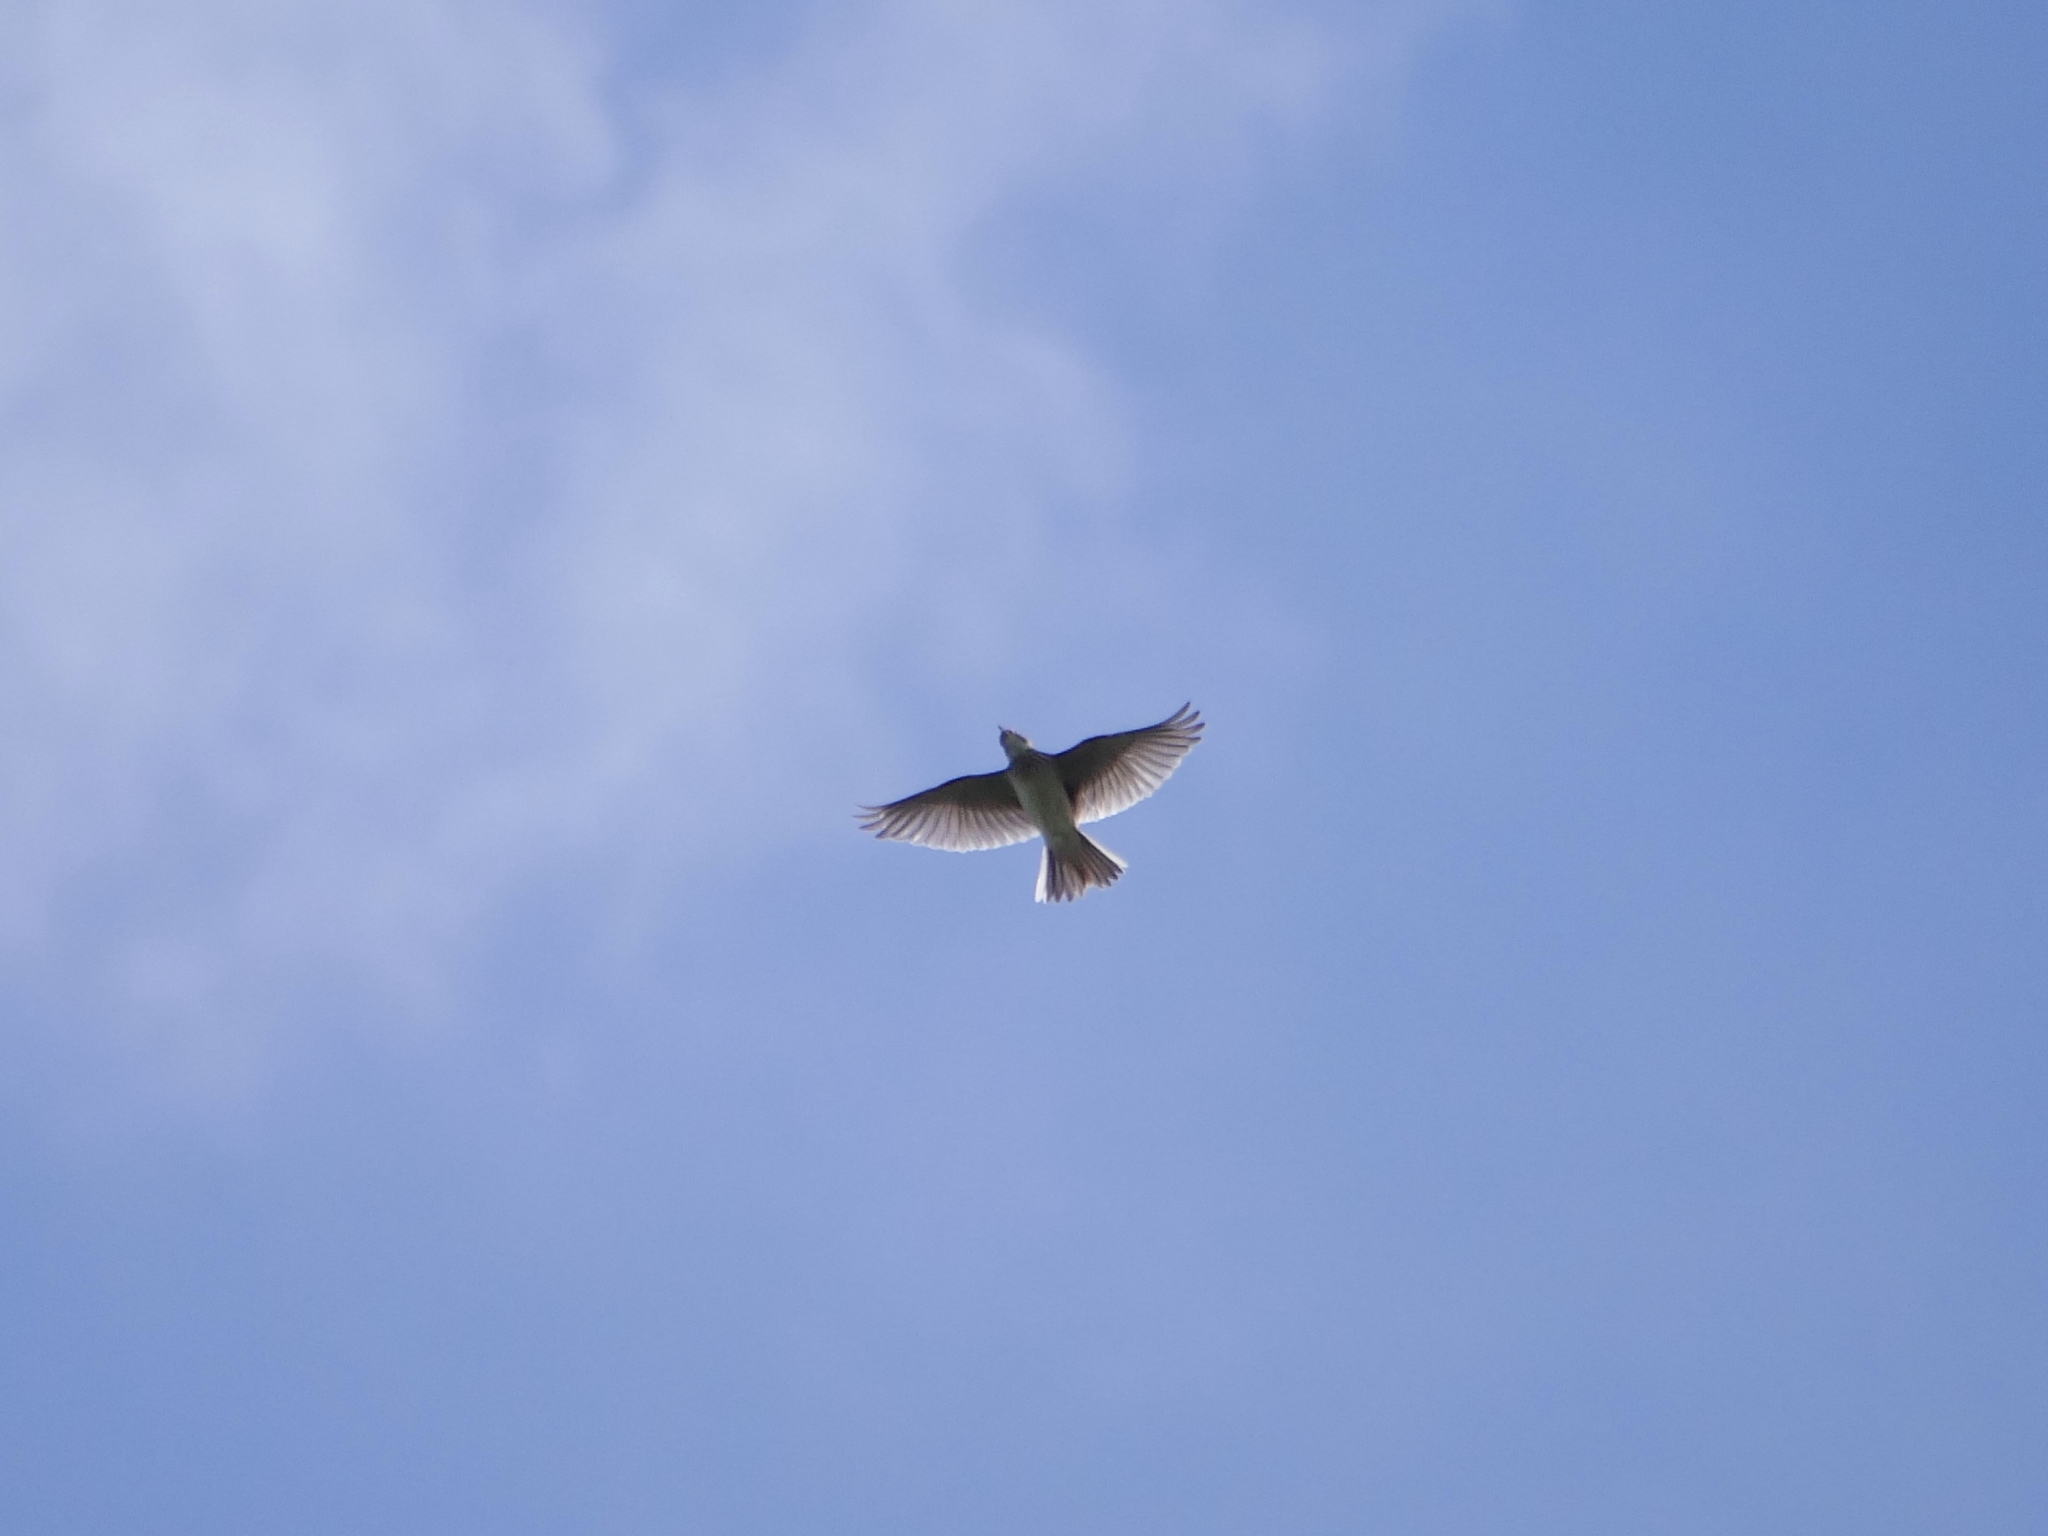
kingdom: Animalia
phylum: Chordata
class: Aves
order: Passeriformes
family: Alaudidae
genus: Alauda
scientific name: Alauda arvensis
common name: Eurasian skylark
